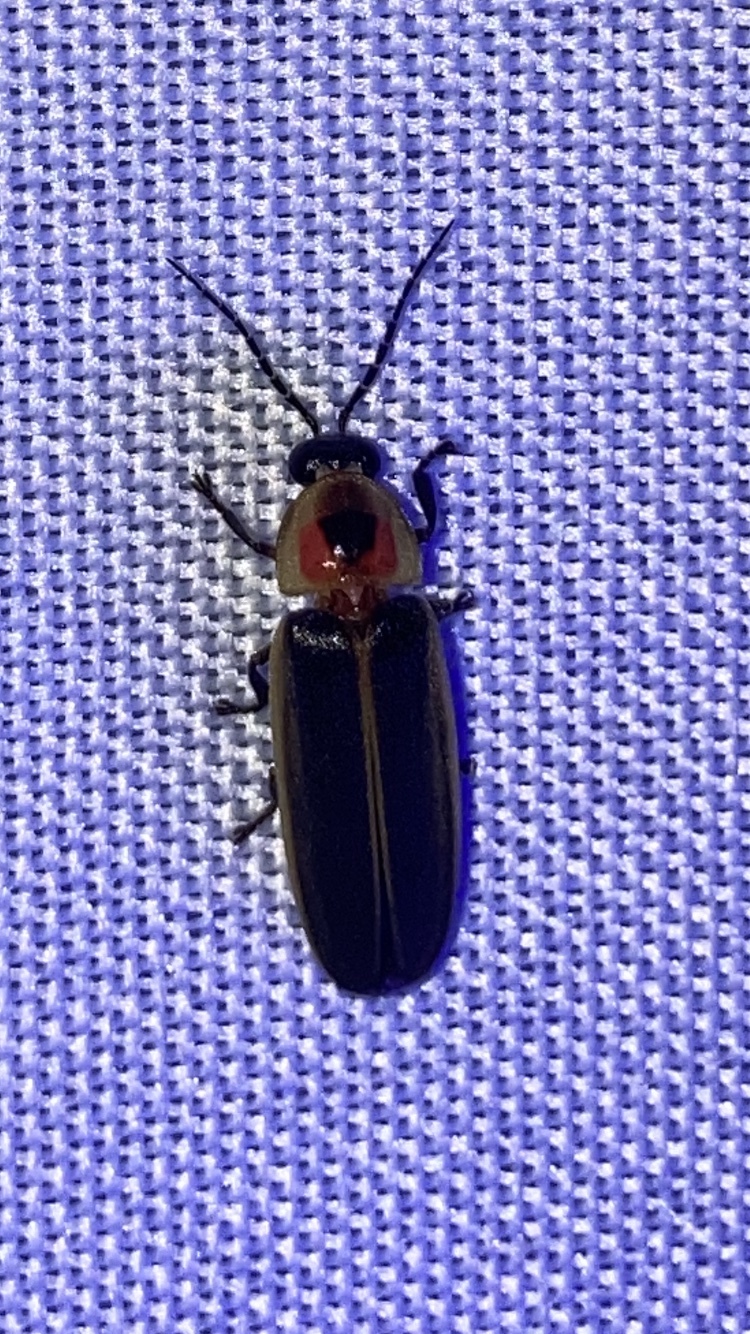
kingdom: Animalia
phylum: Arthropoda
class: Insecta
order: Coleoptera
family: Lampyridae
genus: Photinus
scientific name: Photinus pyralis
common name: Big dipper firefly
